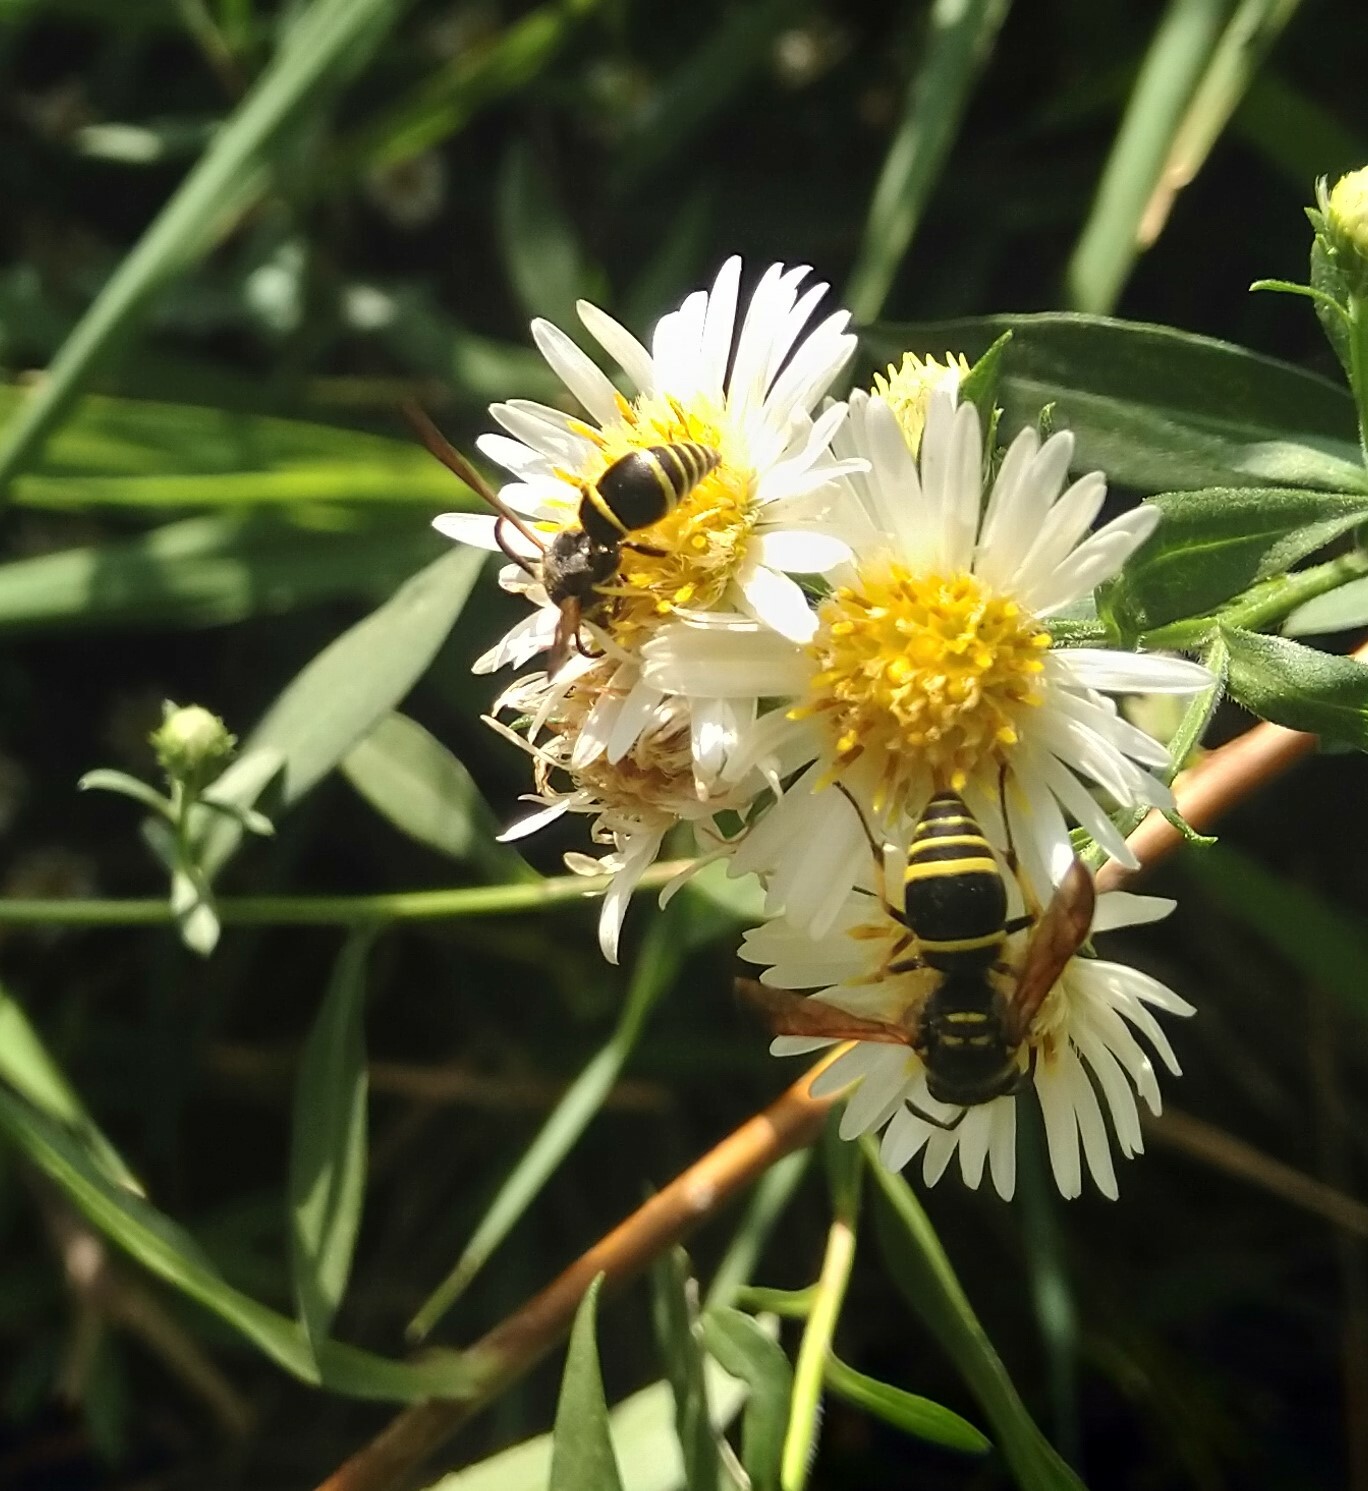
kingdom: Animalia
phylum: Arthropoda
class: Insecta
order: Hymenoptera
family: Vespidae
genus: Ancistrocerus
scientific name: Ancistrocerus adiabatus
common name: Bramble mason wasp
